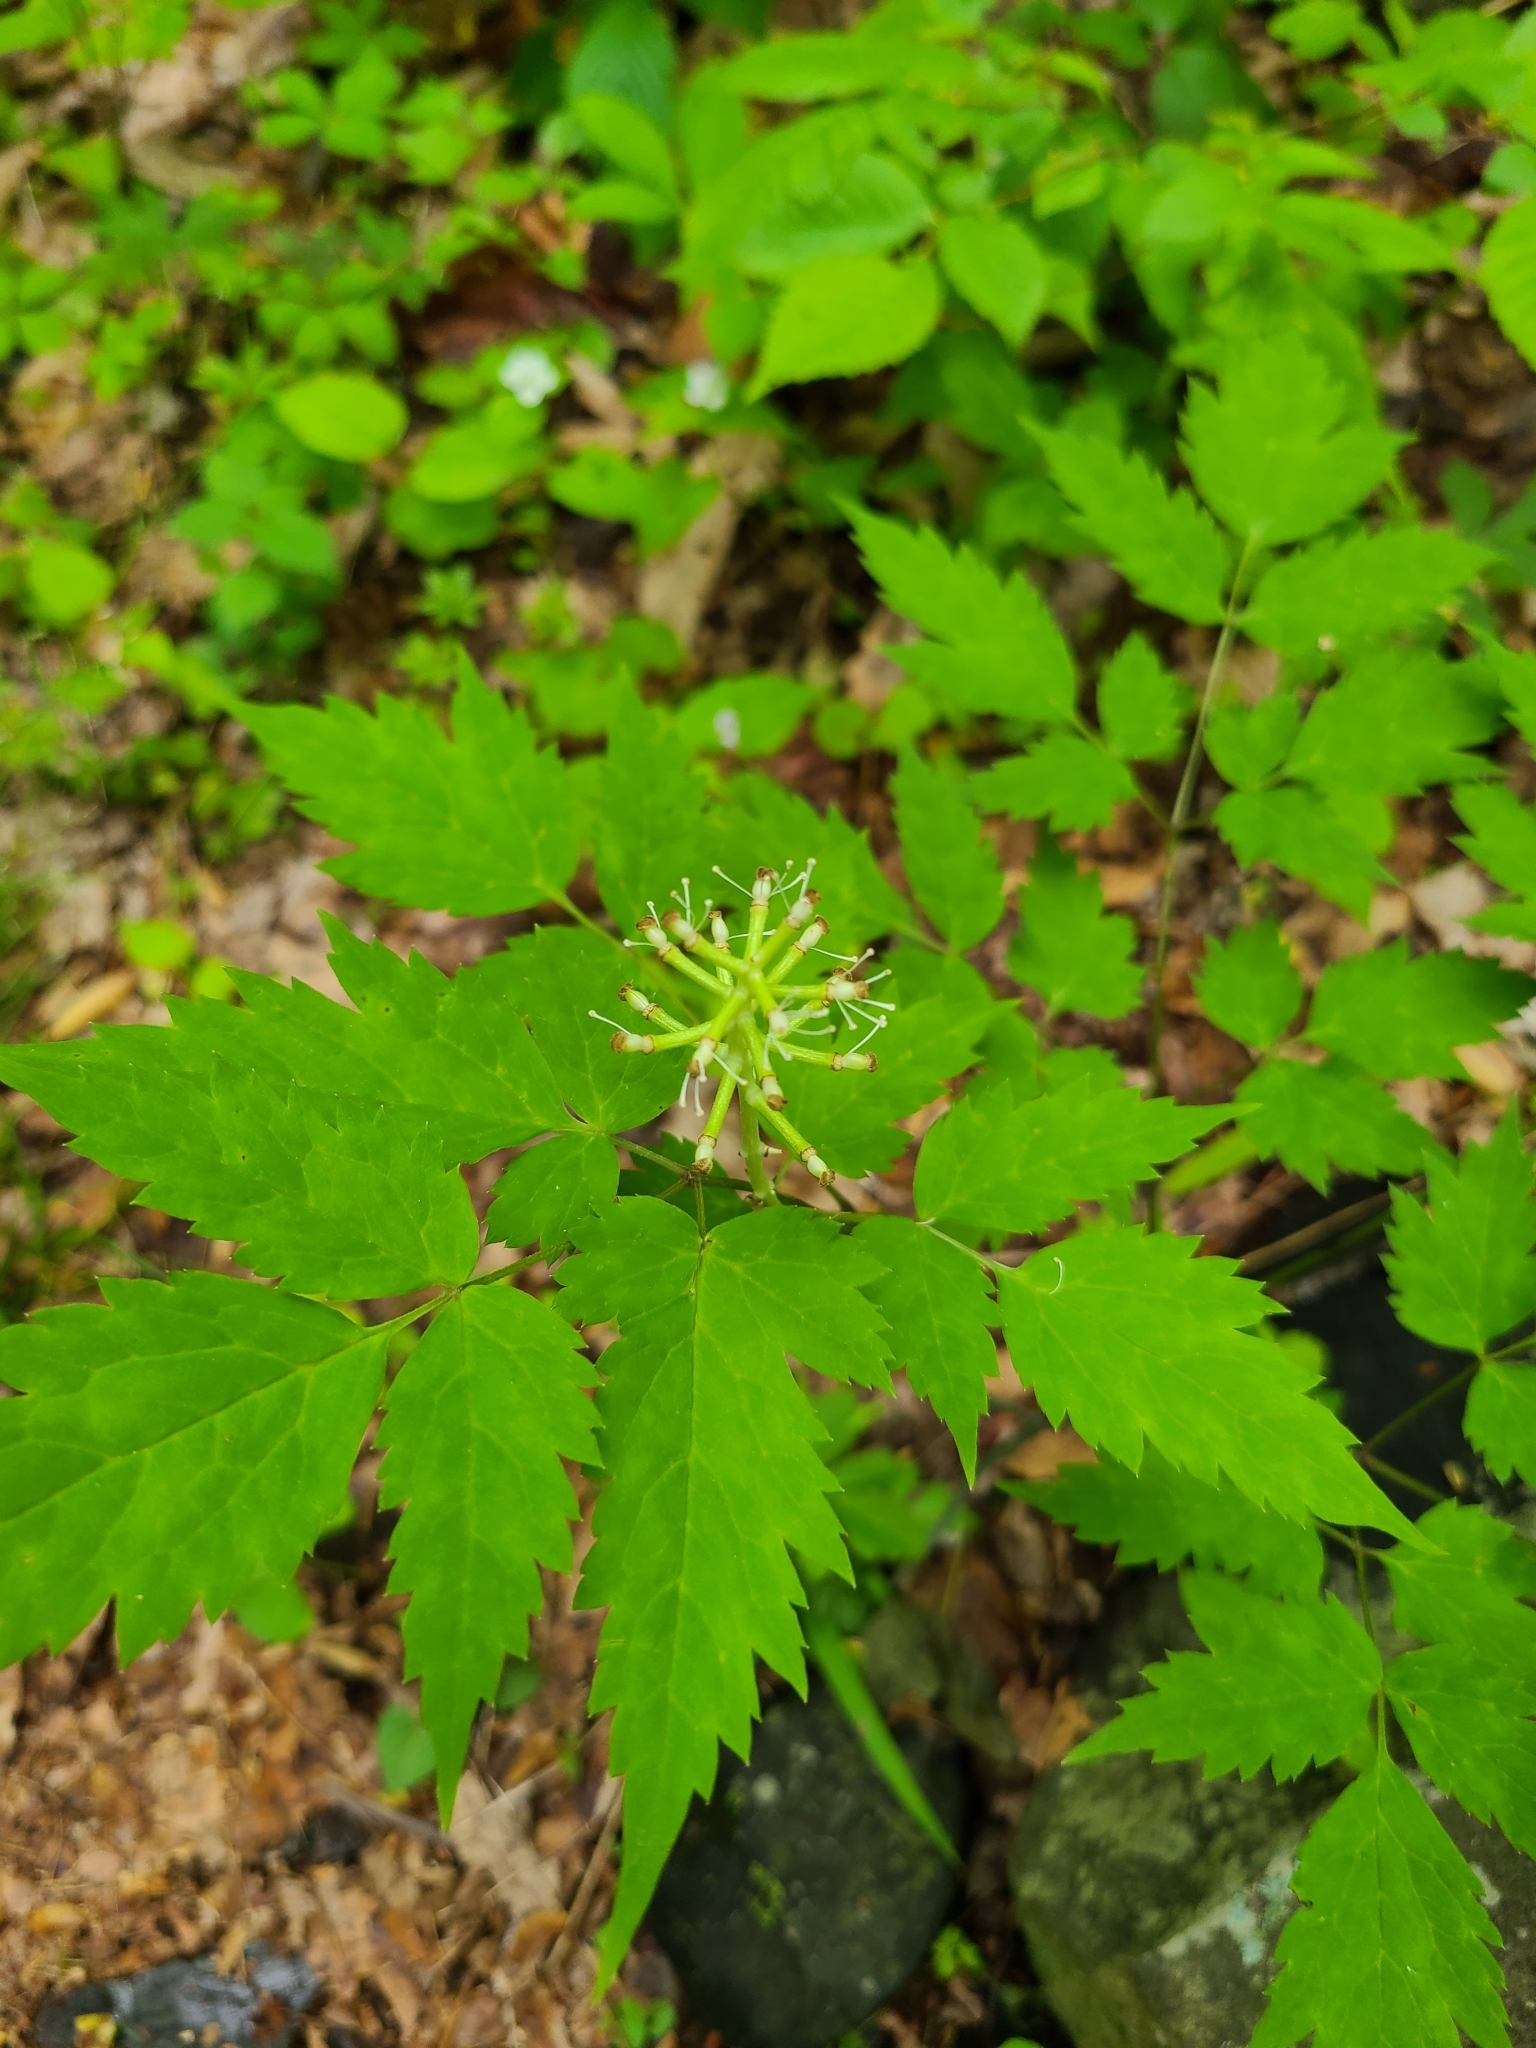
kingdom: Plantae
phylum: Tracheophyta
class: Magnoliopsida
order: Ranunculales
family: Ranunculaceae
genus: Actaea
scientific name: Actaea pachypoda
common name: Doll's-eyes
